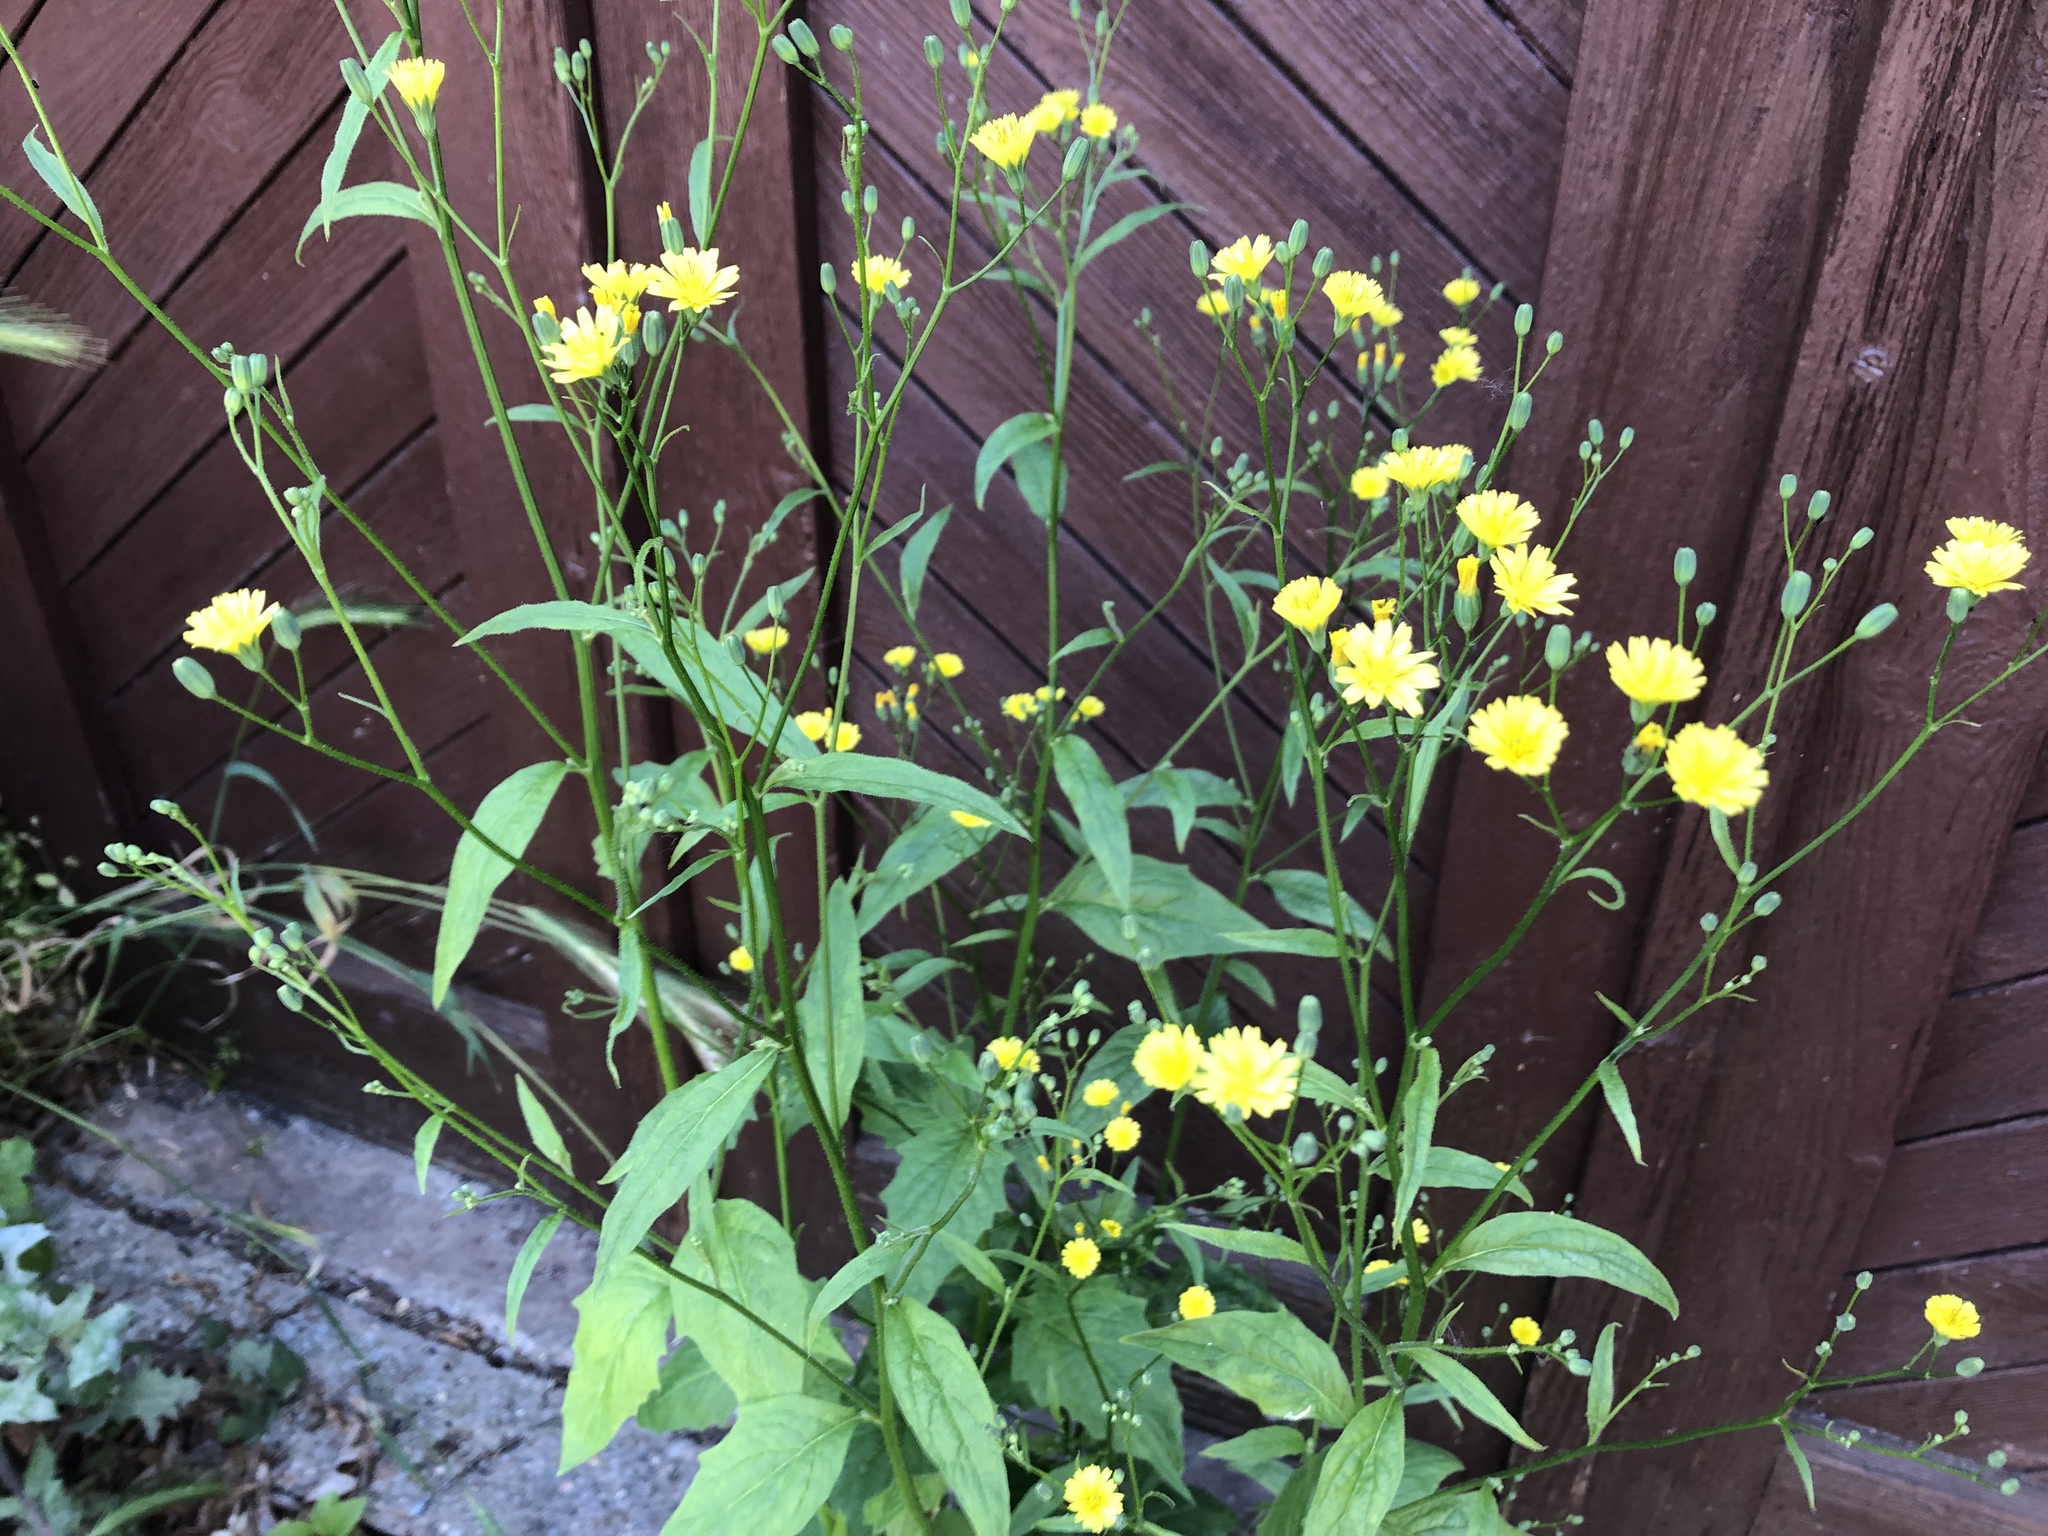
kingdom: Plantae
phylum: Tracheophyta
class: Magnoliopsida
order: Asterales
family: Asteraceae
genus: Lapsana
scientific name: Lapsana communis
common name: Nipplewort
